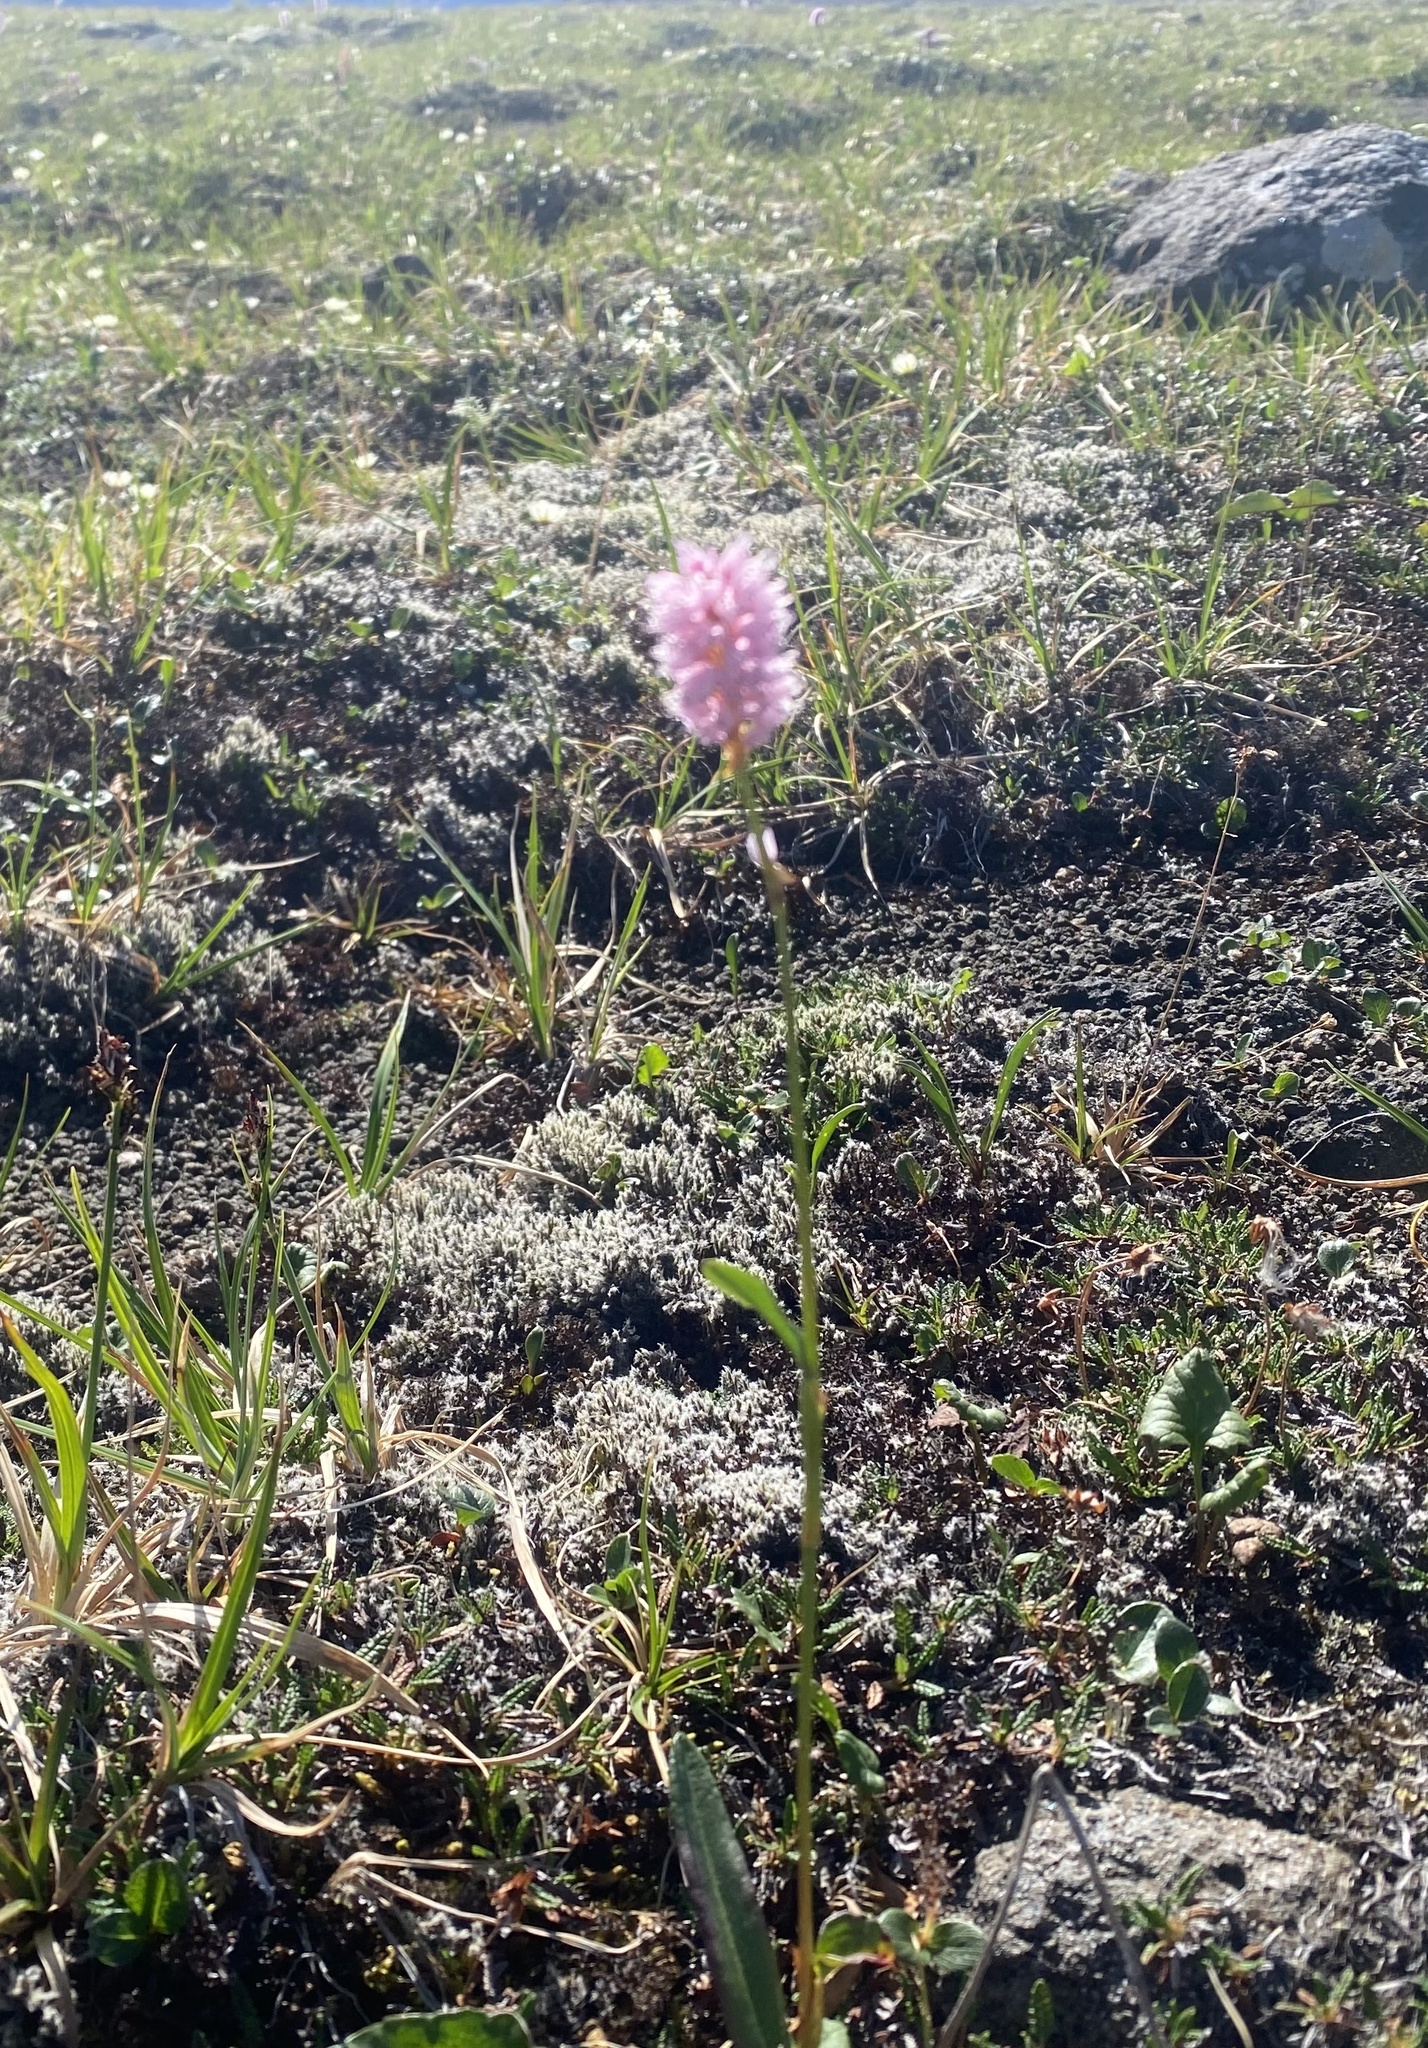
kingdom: Plantae
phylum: Tracheophyta
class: Magnoliopsida
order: Caryophyllales
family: Polygonaceae
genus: Bistorta
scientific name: Bistorta officinalis
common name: Common bistort
